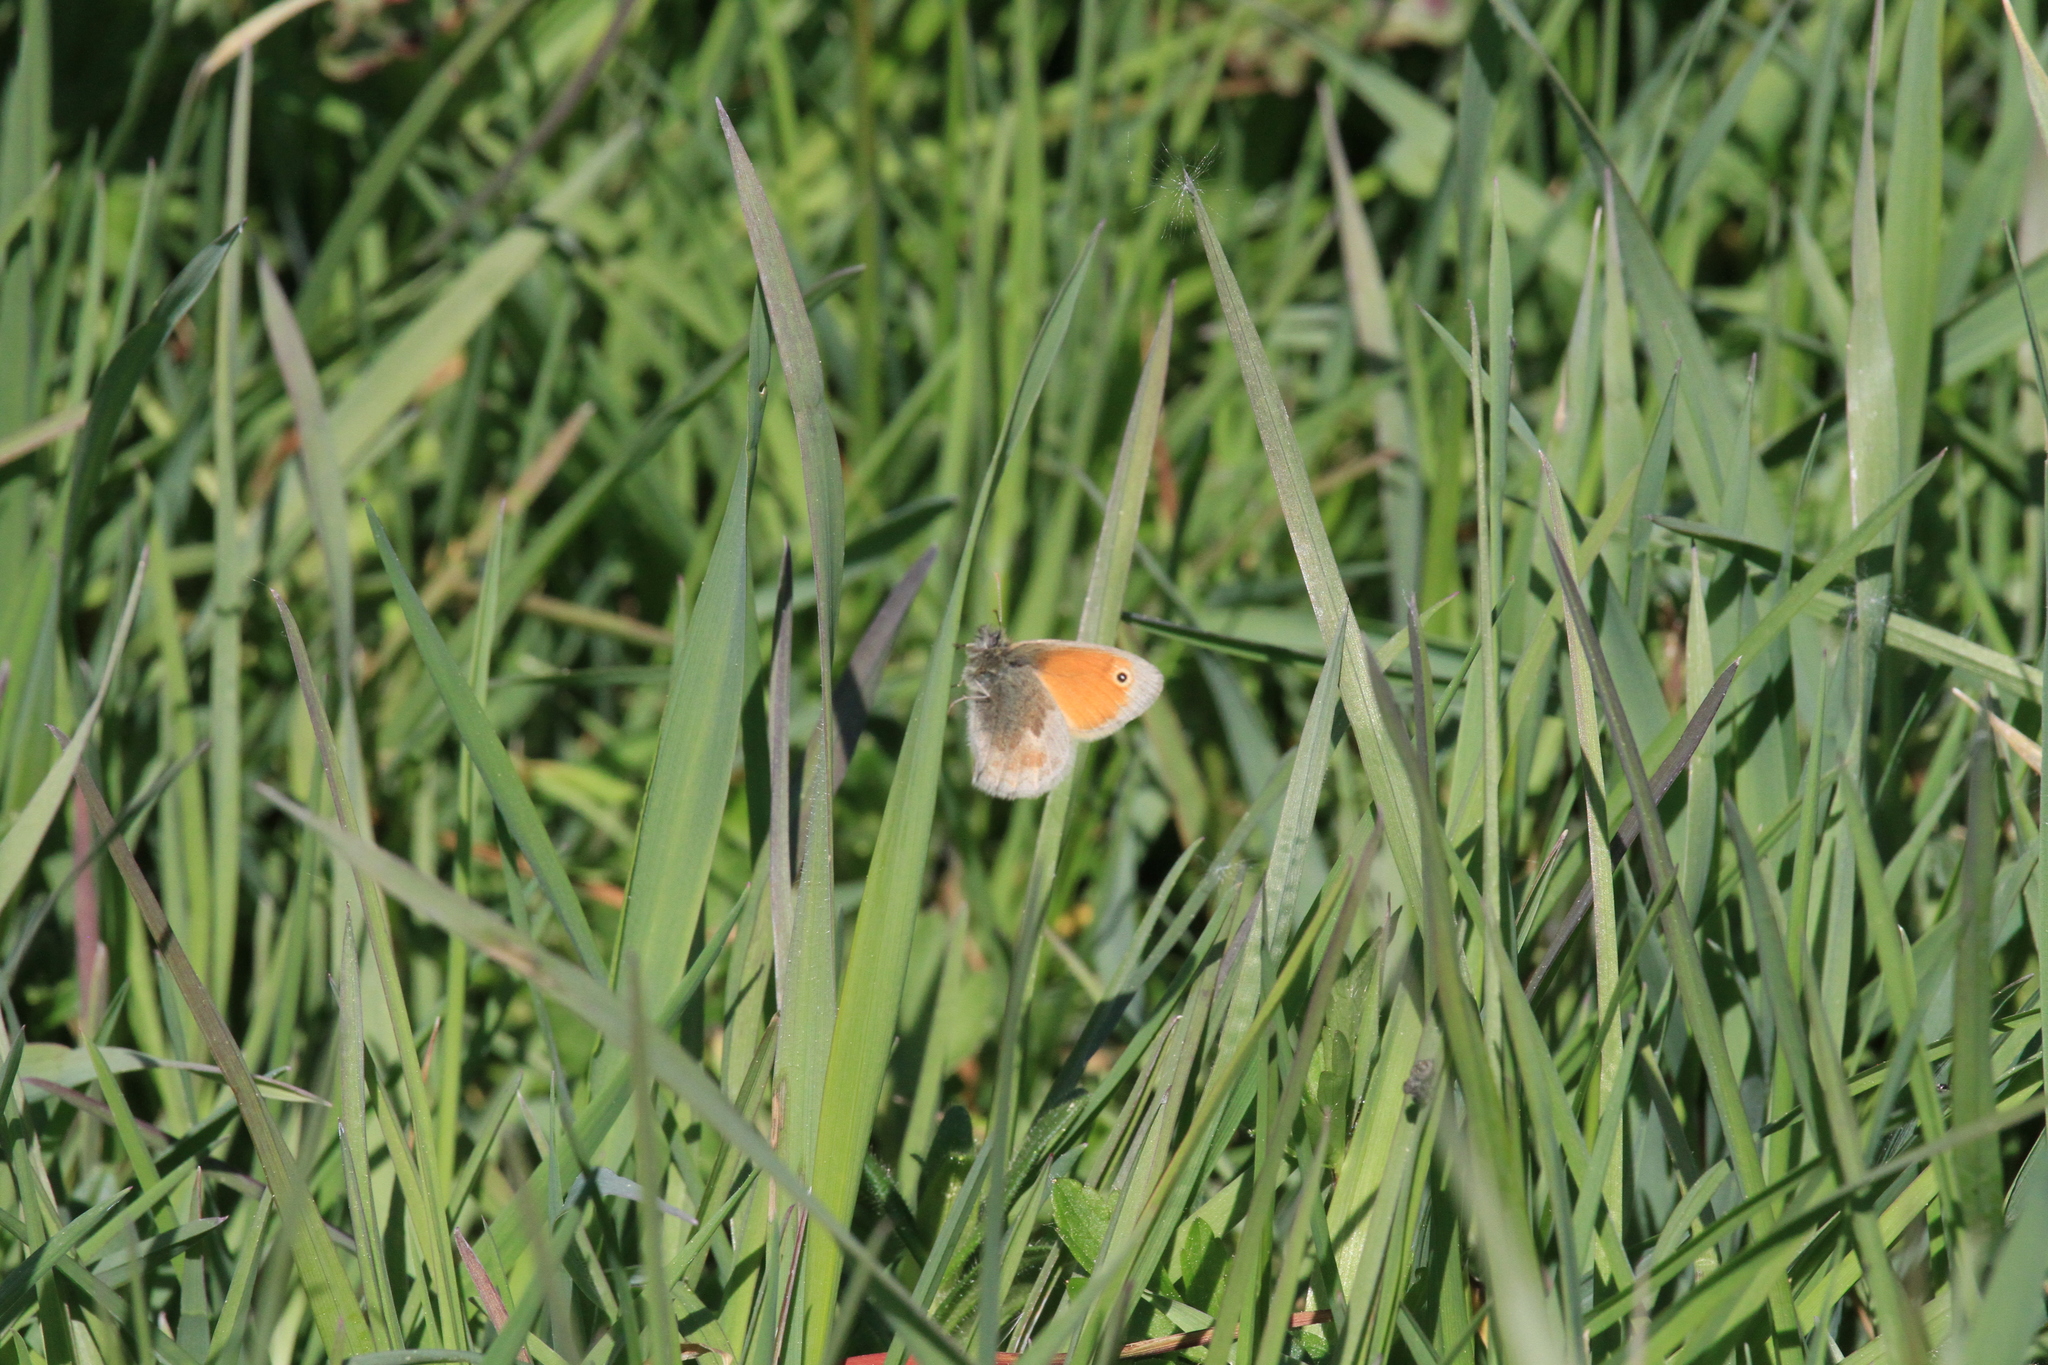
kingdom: Animalia
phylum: Arthropoda
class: Insecta
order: Lepidoptera
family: Nymphalidae
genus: Coenonympha
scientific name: Coenonympha pamphilus
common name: Small heath
